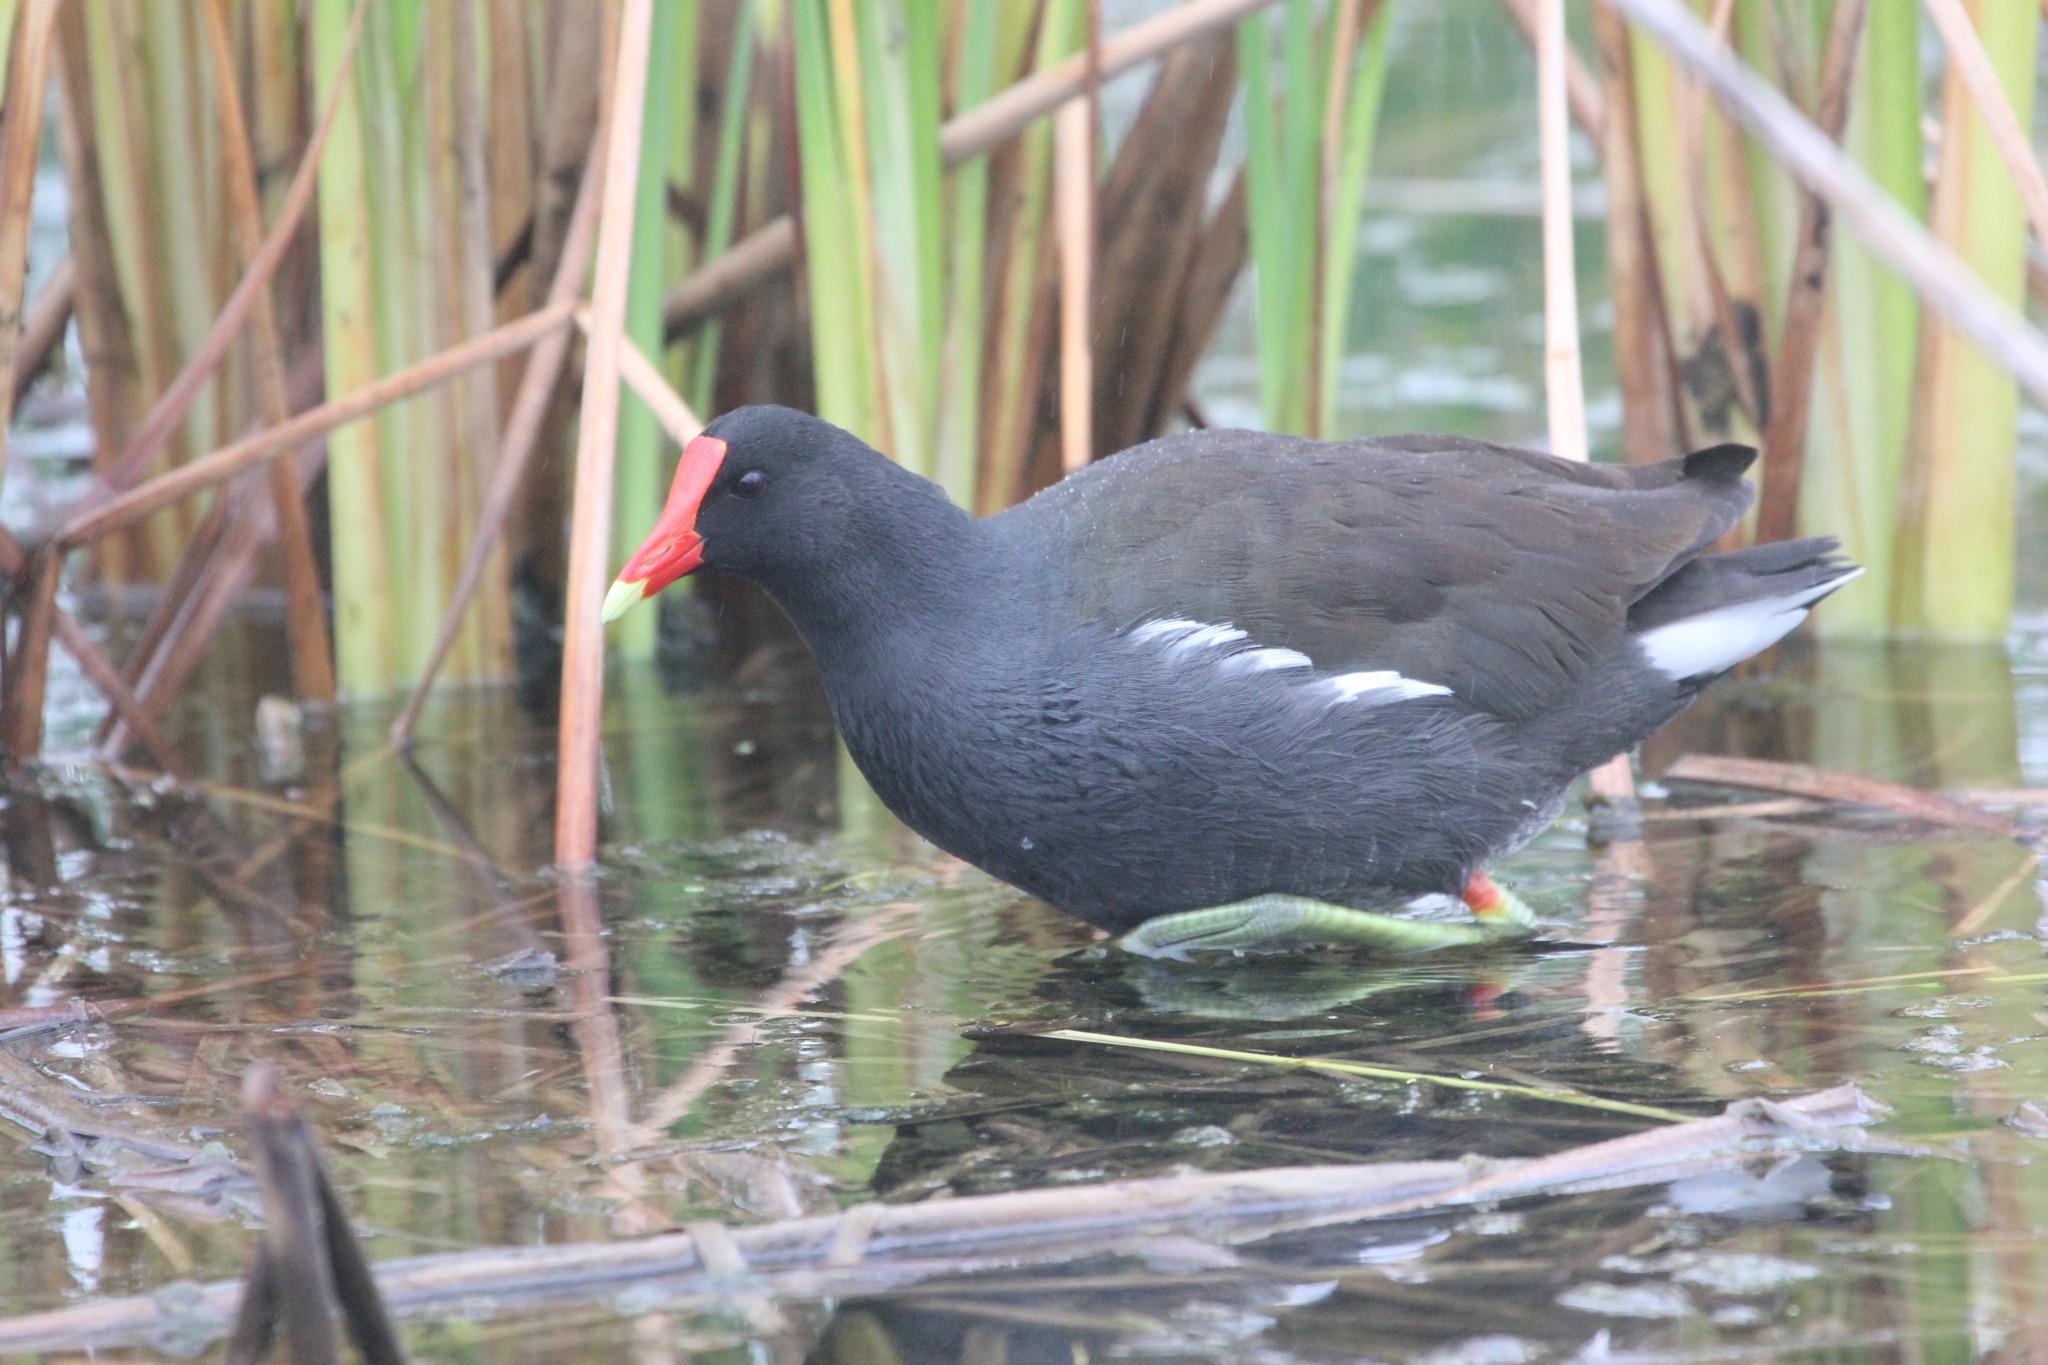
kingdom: Animalia
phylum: Chordata
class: Aves
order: Gruiformes
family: Rallidae
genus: Gallinula
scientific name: Gallinula chloropus
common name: Common moorhen
